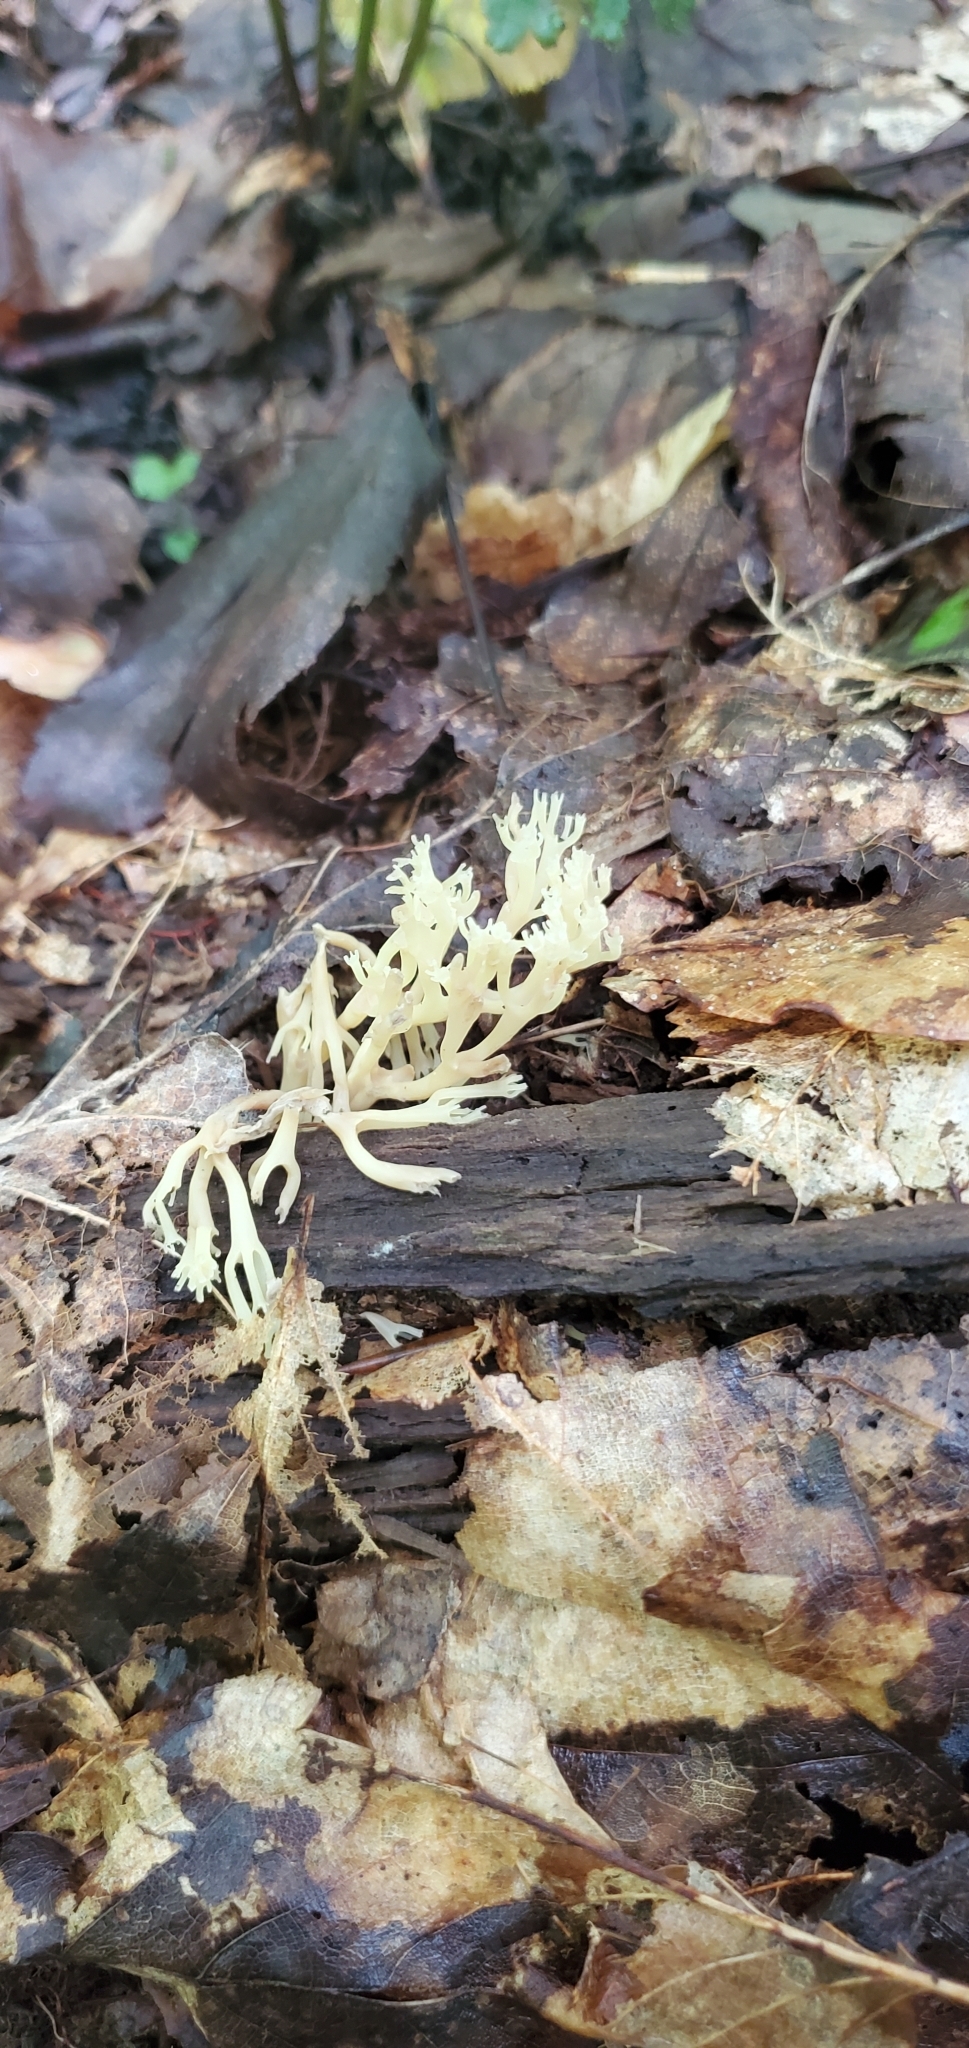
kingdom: Fungi
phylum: Basidiomycota
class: Agaricomycetes
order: Russulales
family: Auriscalpiaceae
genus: Artomyces
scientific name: Artomyces pyxidatus
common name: Crown-tipped coral fungus
